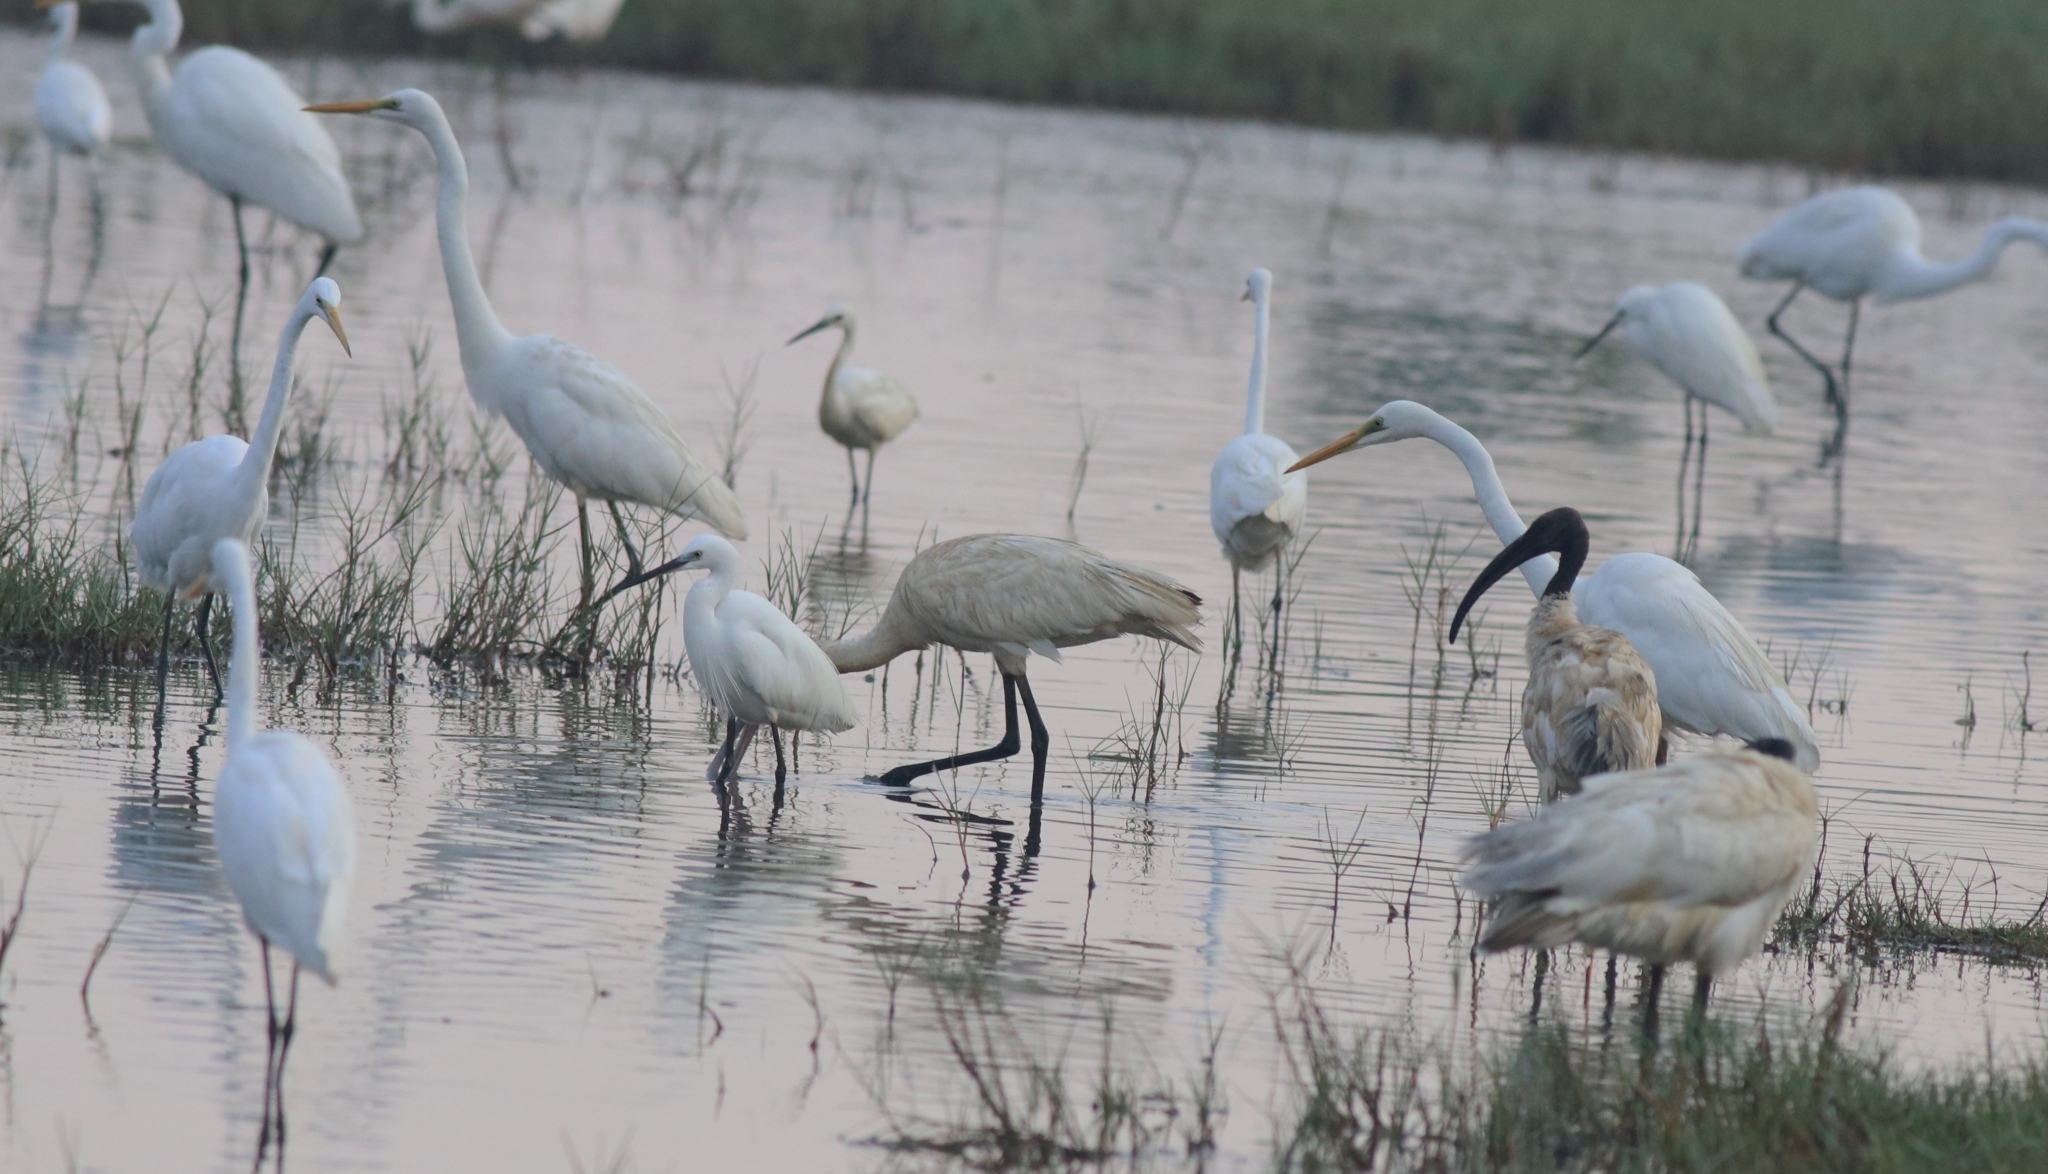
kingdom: Animalia
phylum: Chordata
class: Aves
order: Pelecaniformes
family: Threskiornithidae
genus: Threskiornis
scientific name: Threskiornis melanocephalus
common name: Black-headed ibis
